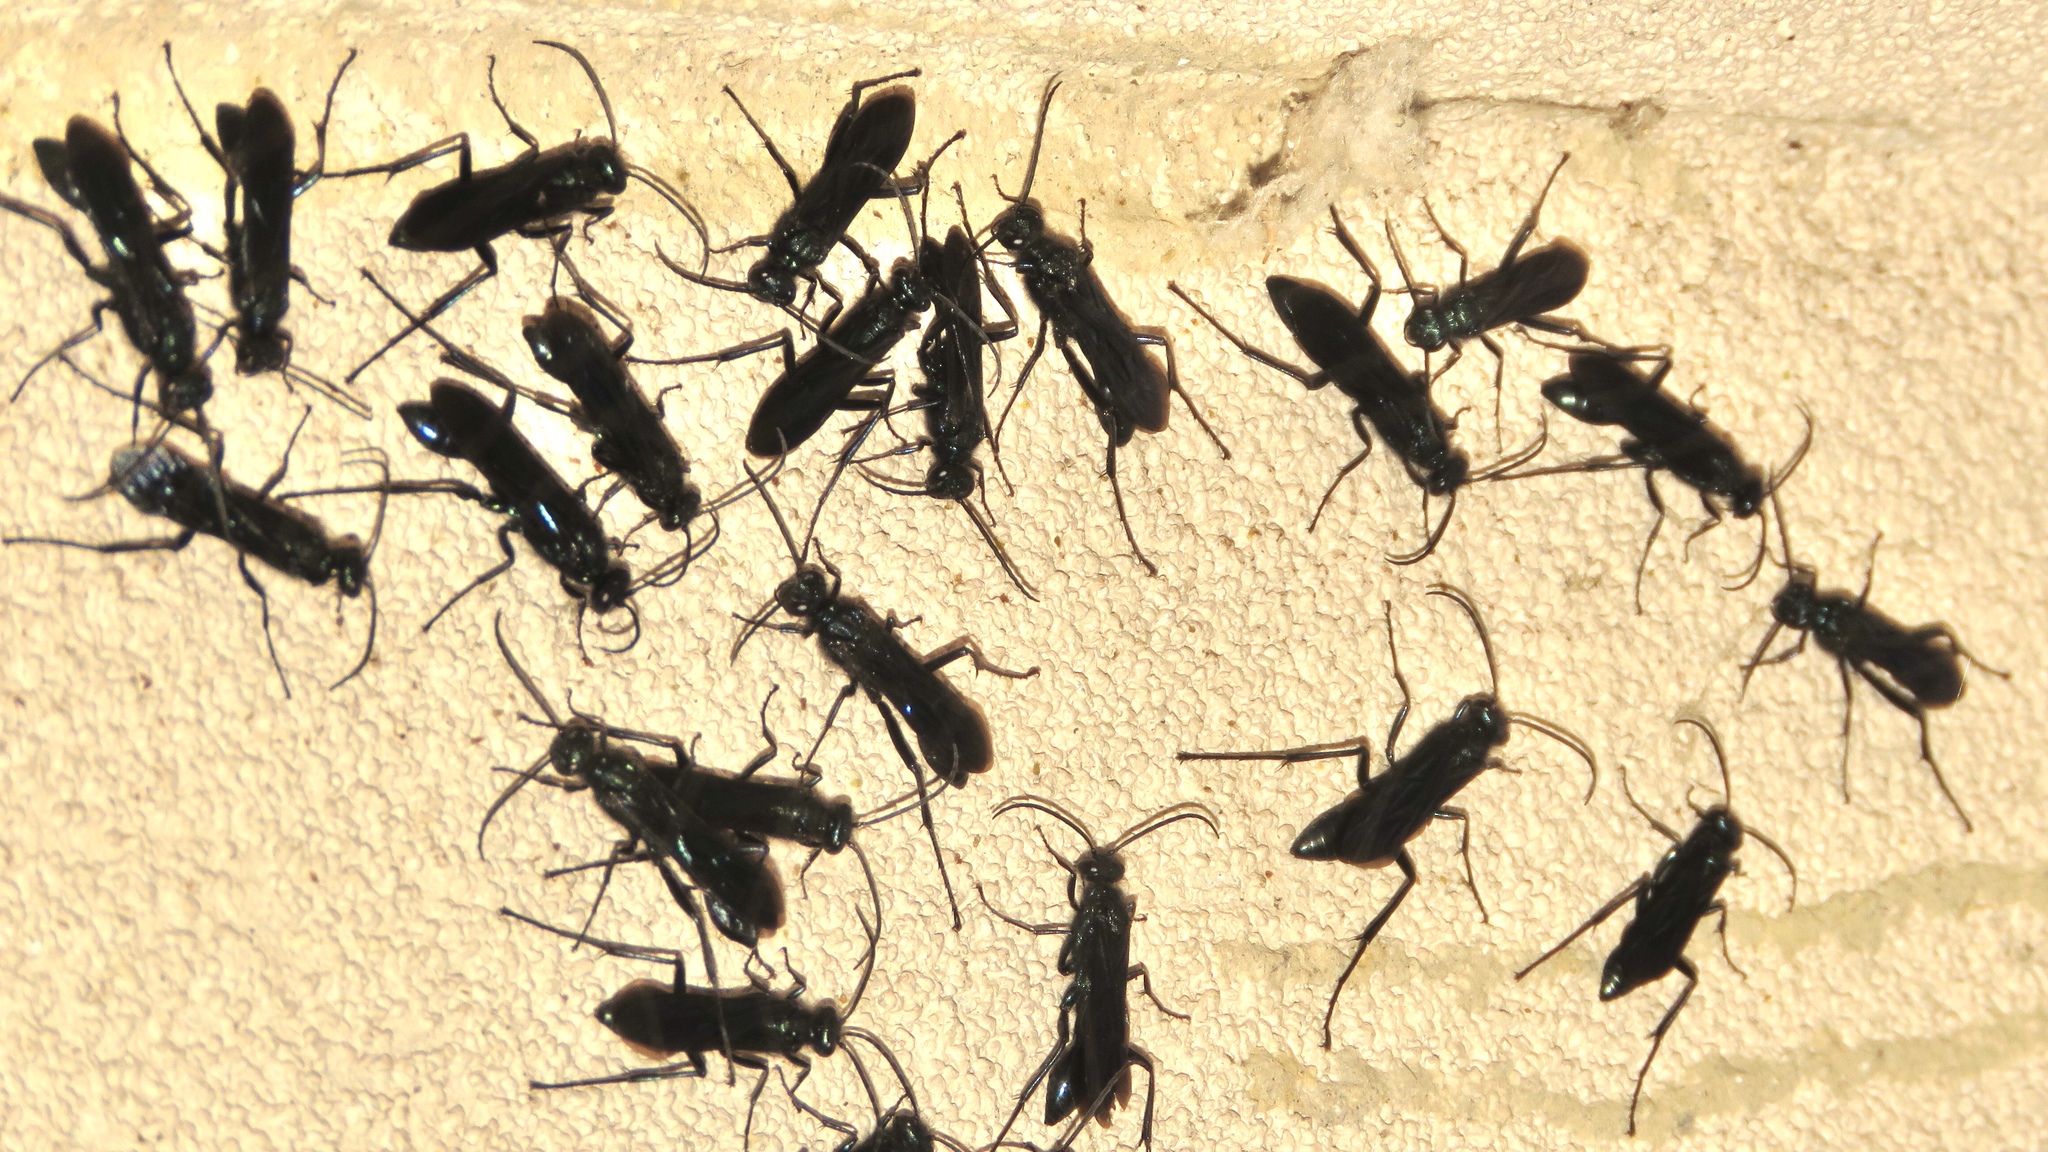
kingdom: Animalia
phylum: Arthropoda
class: Insecta
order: Hymenoptera
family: Sphecidae
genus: Chalybion
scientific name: Chalybion californicum
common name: Mud dauber
